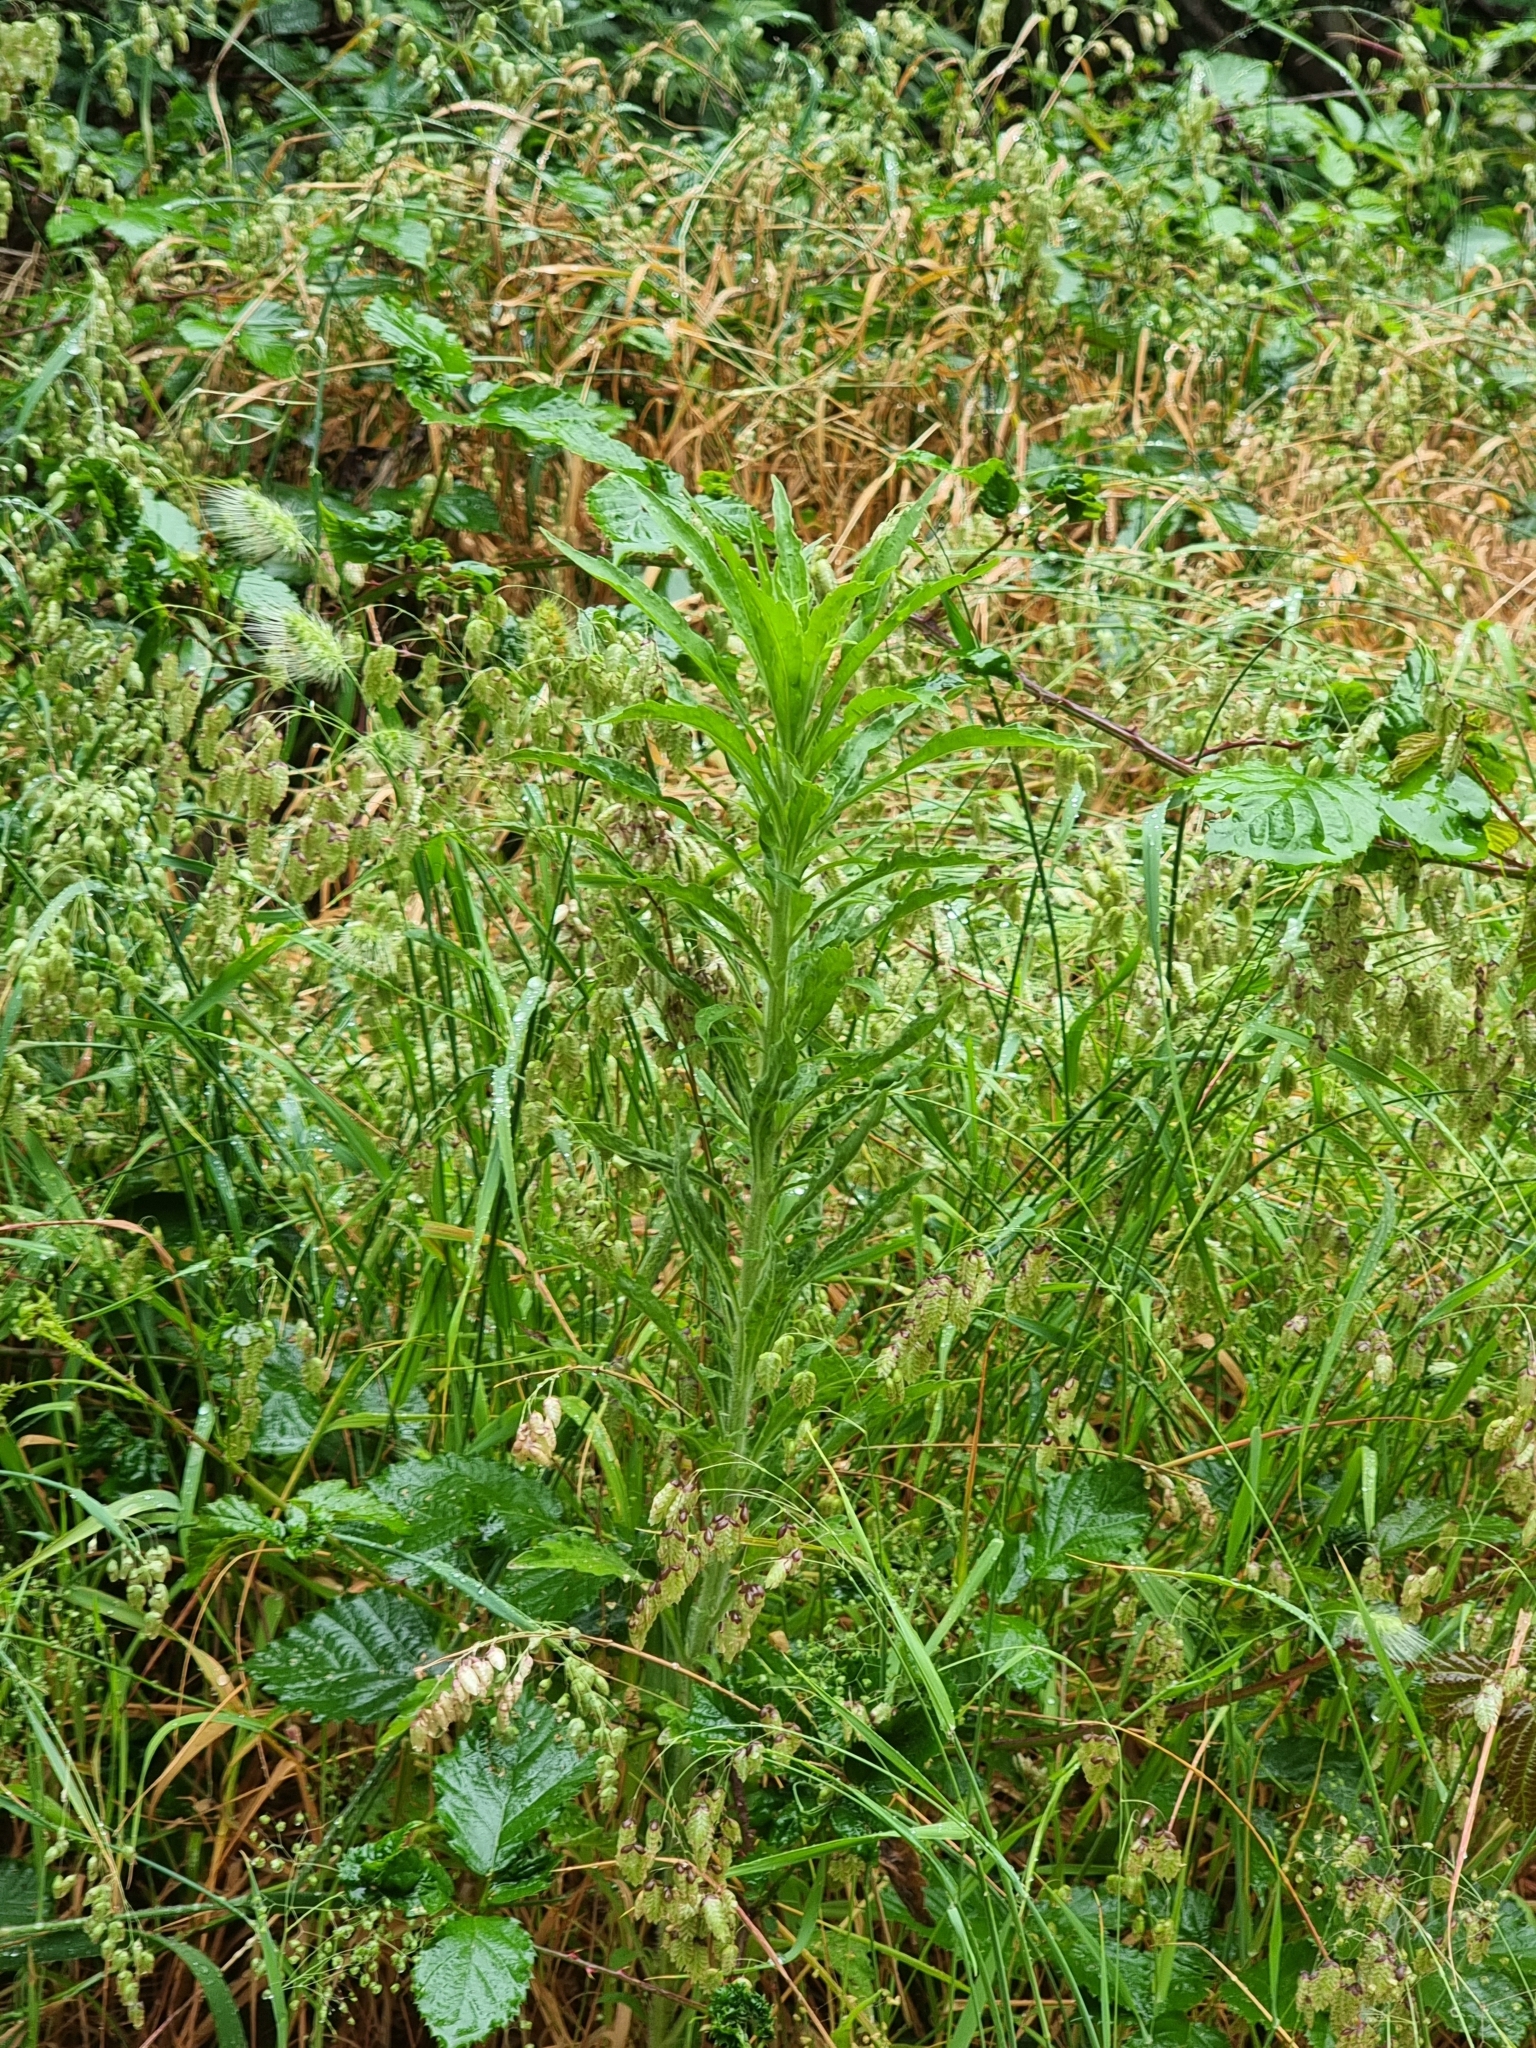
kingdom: Plantae
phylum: Tracheophyta
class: Magnoliopsida
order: Asterales
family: Asteraceae
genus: Erigeron
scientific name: Erigeron canadensis
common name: Canadian fleabane
